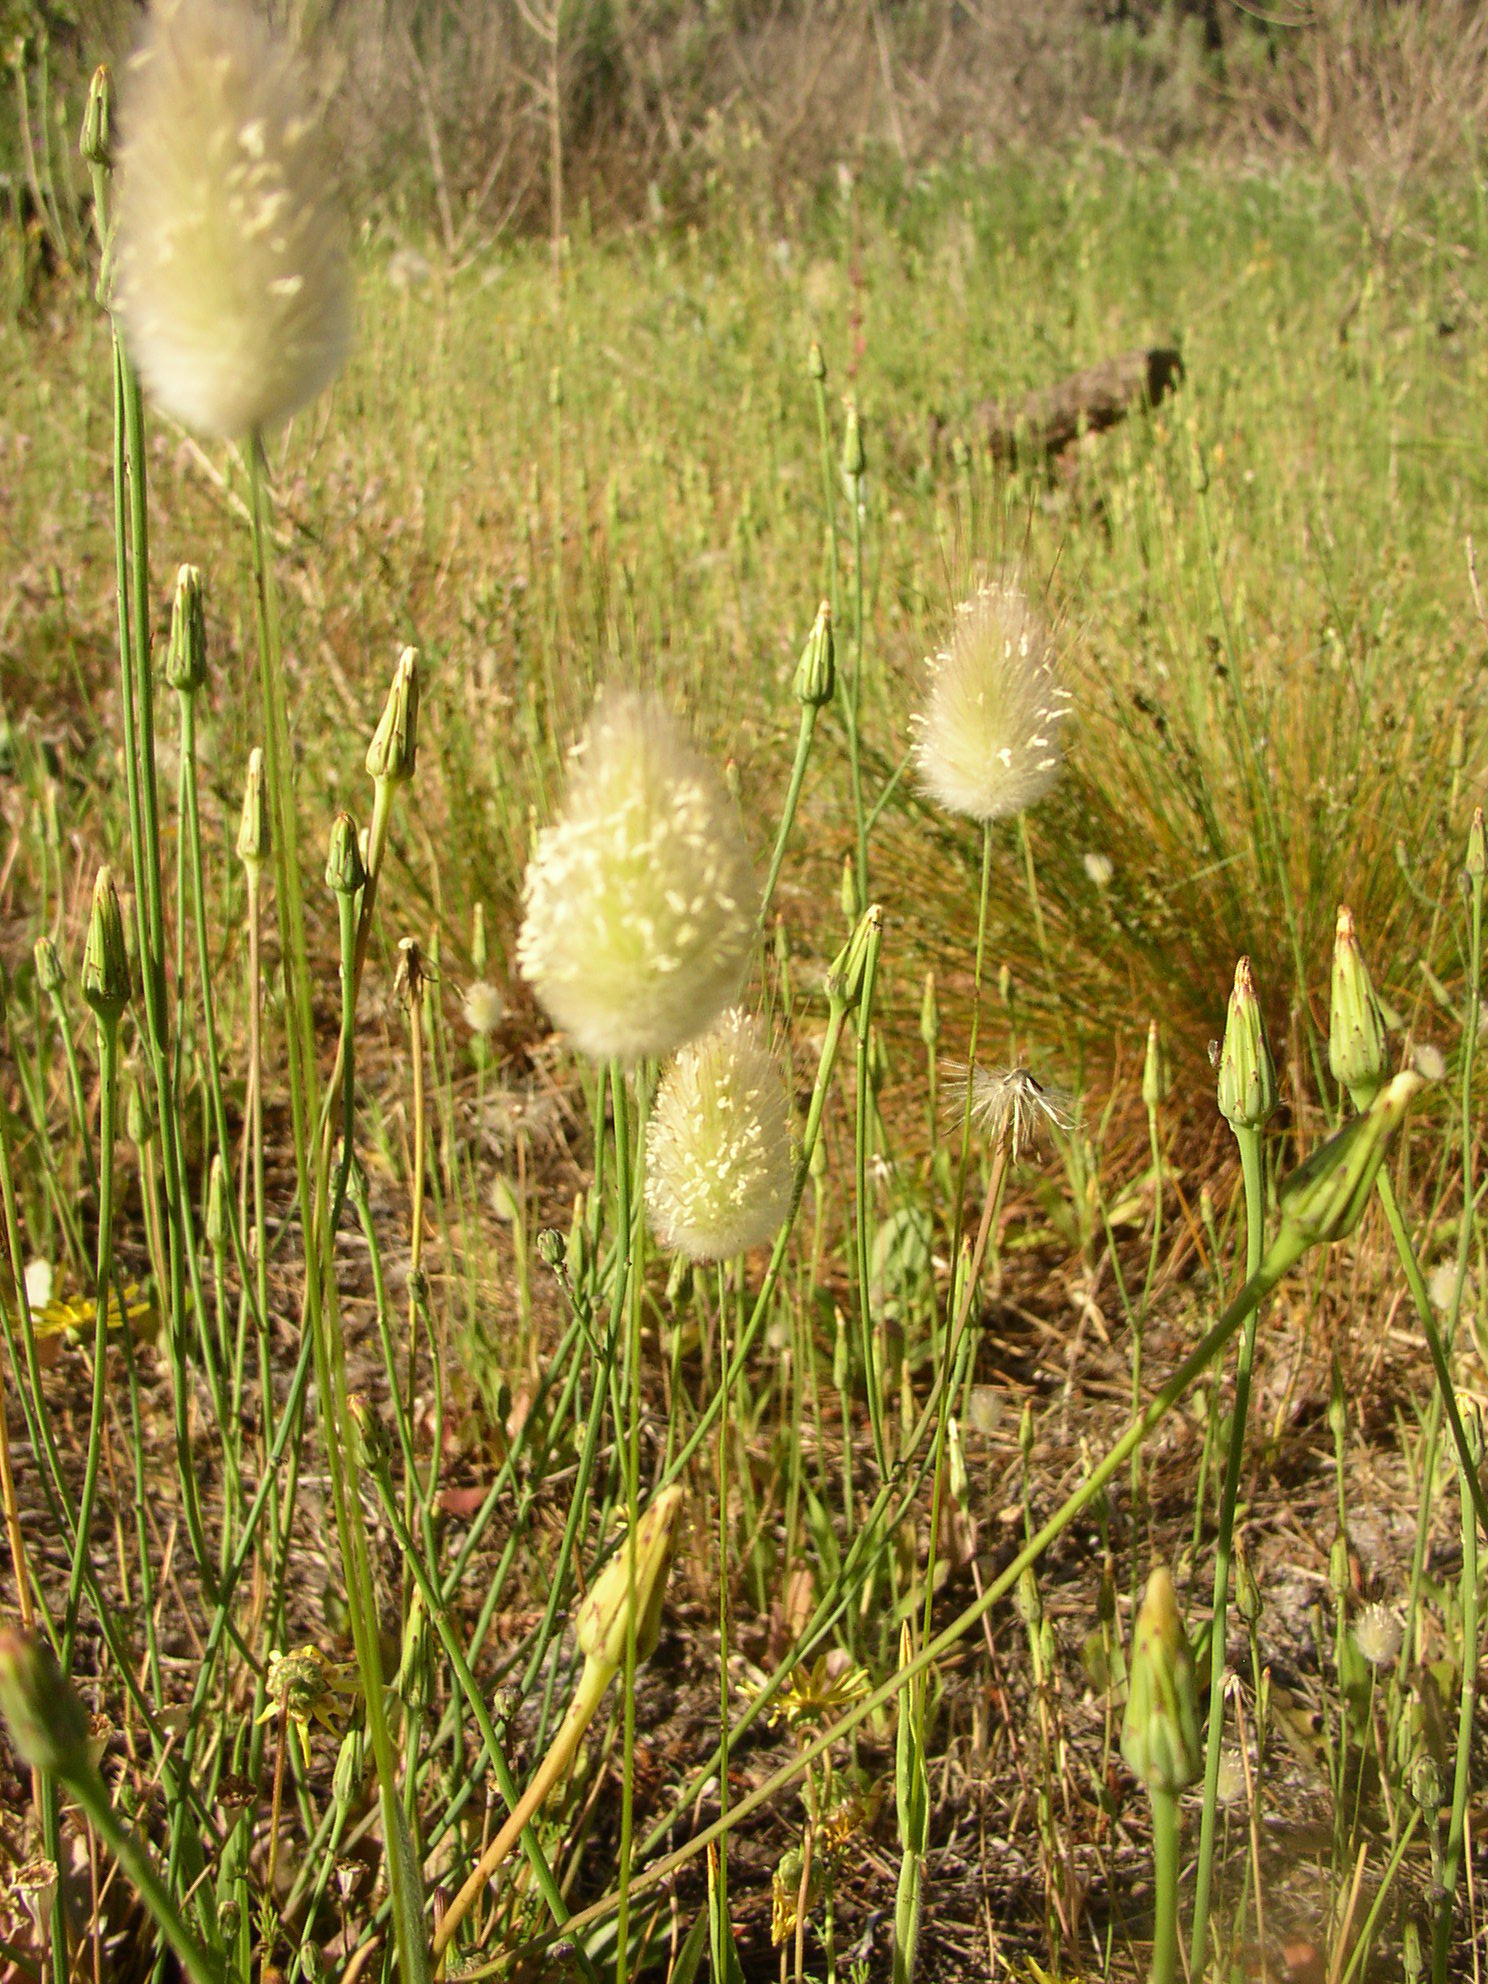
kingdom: Plantae
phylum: Tracheophyta
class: Liliopsida
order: Poales
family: Poaceae
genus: Lagurus
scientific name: Lagurus ovatus
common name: Hare's-tail
